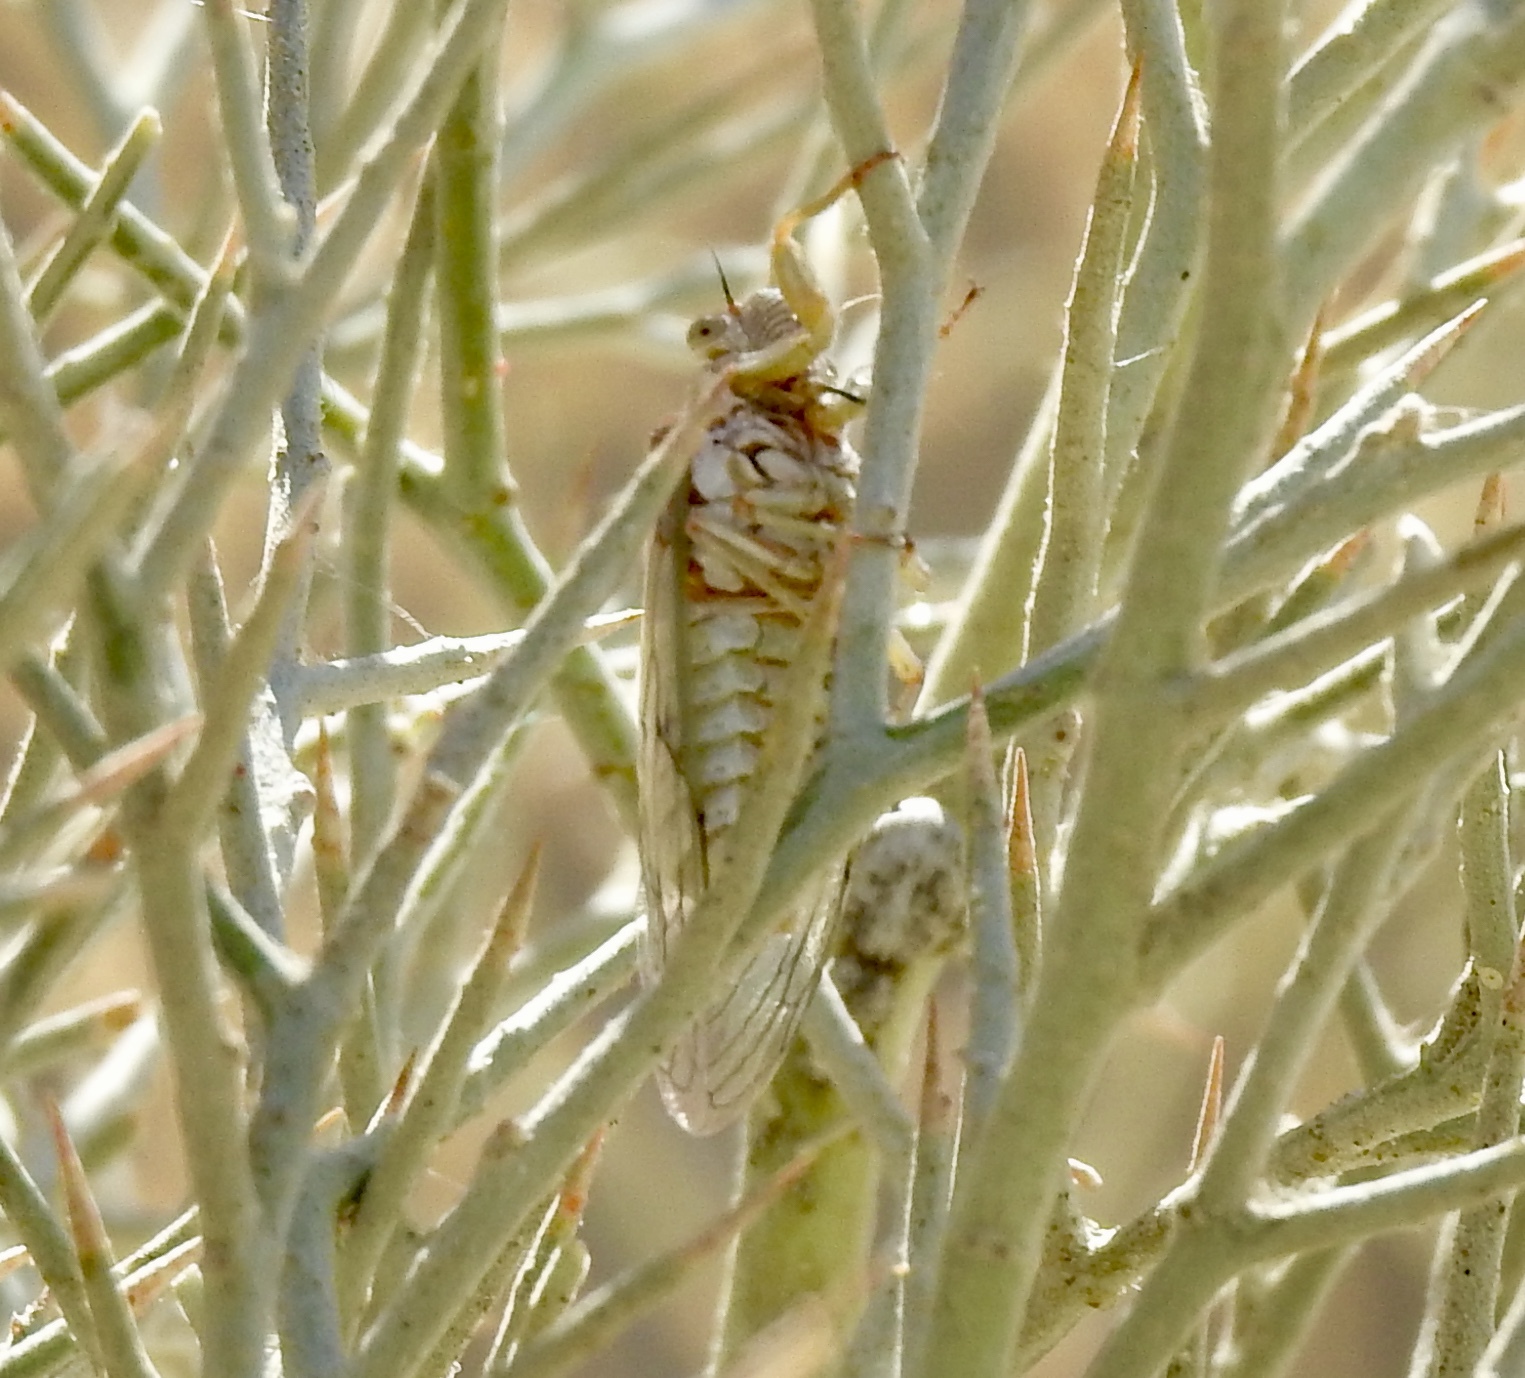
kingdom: Animalia
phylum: Arthropoda
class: Insecta
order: Hemiptera
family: Cicadidae
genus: Okanagodes
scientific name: Okanagodes gracilis
